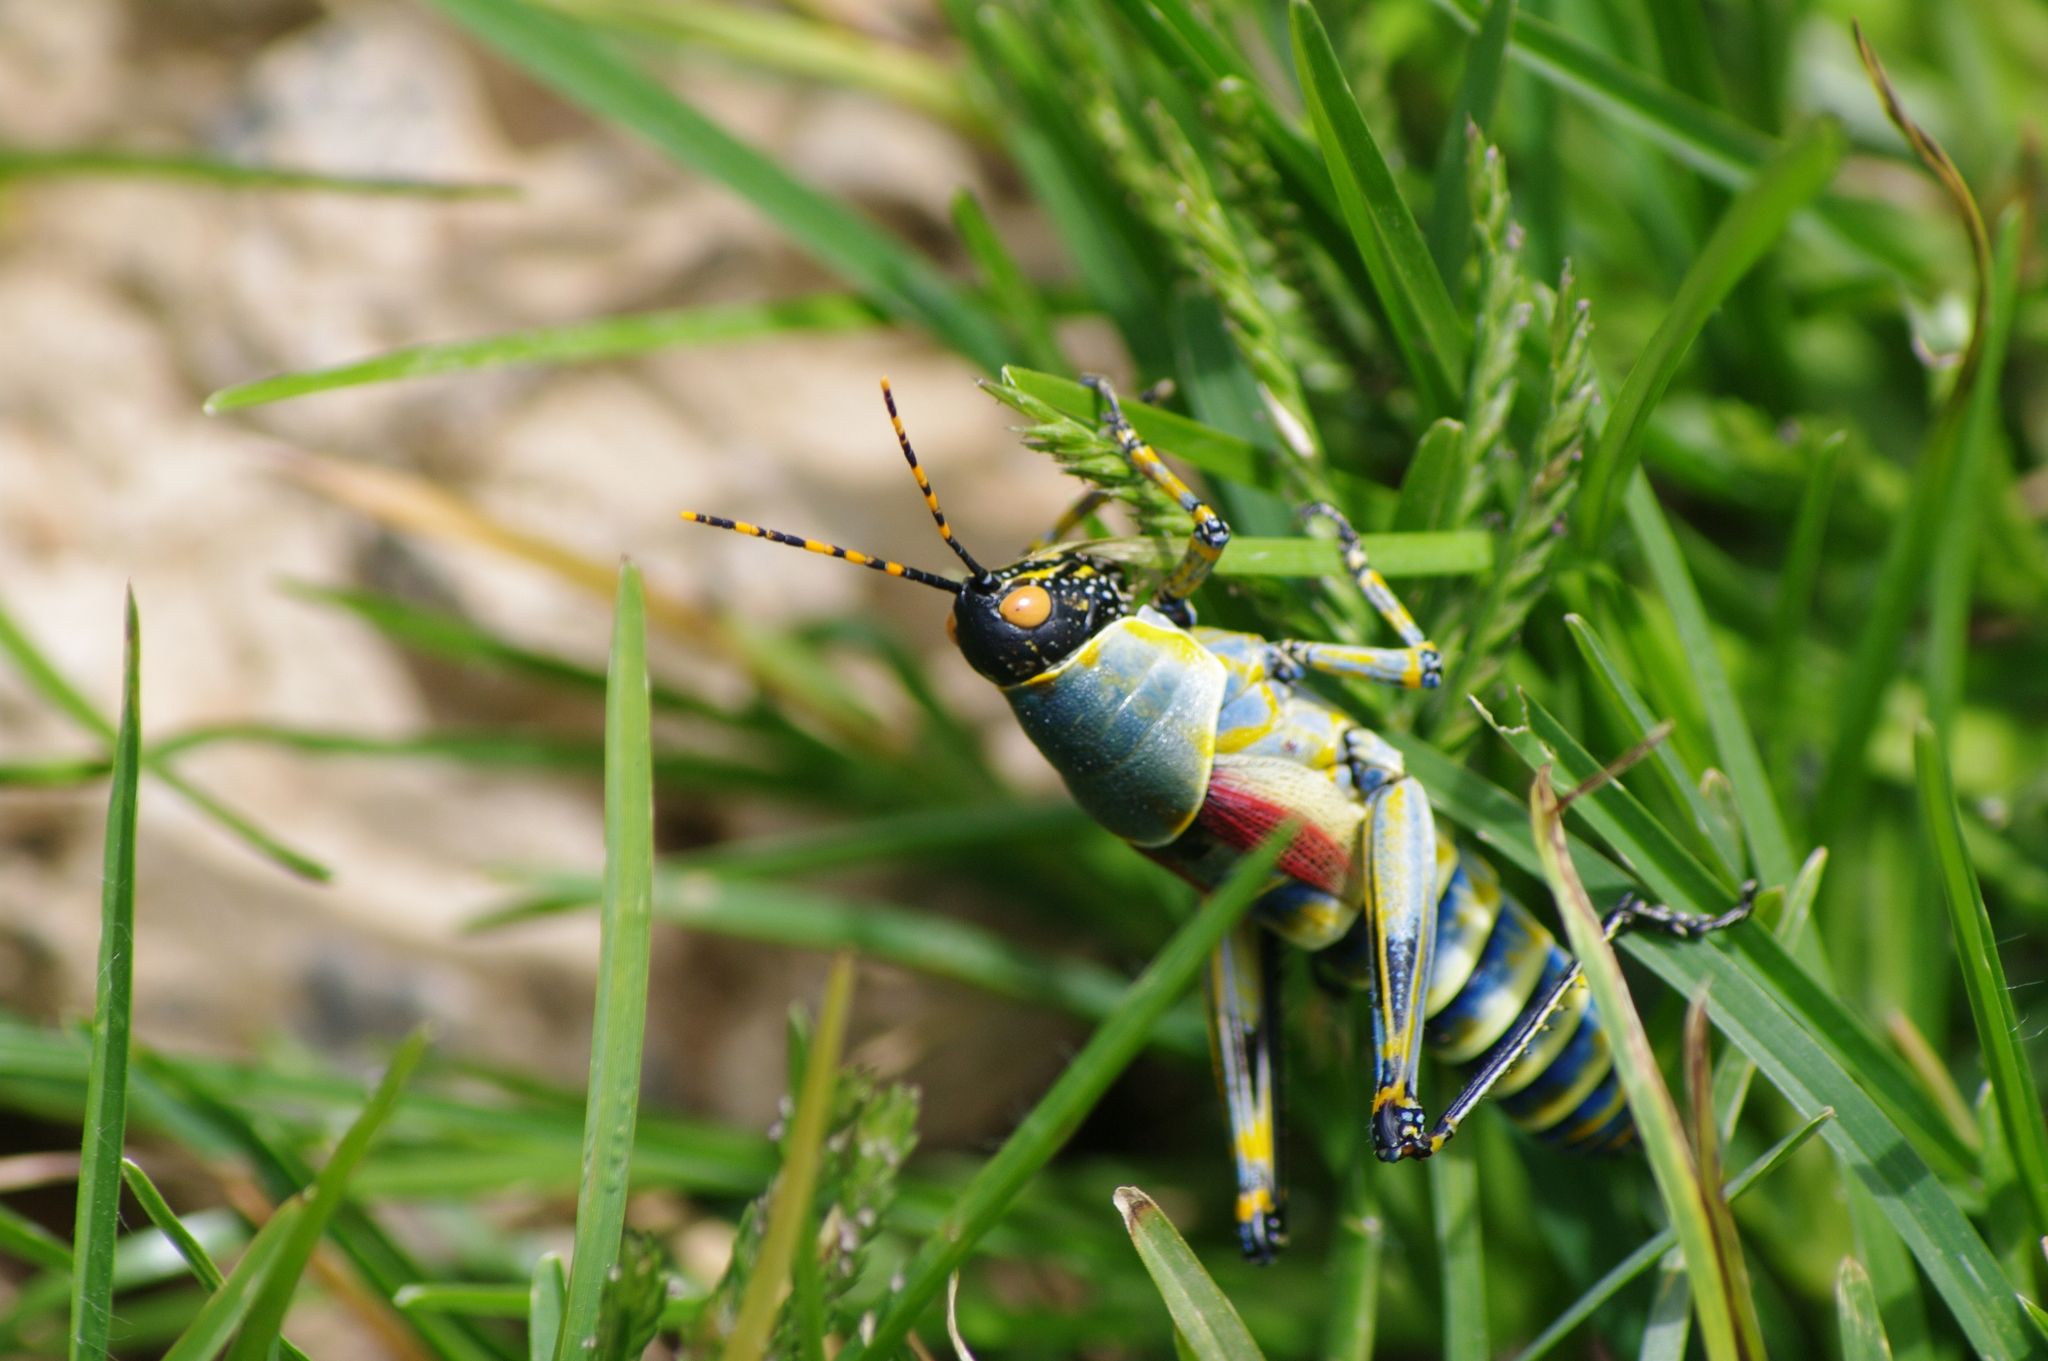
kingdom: Animalia
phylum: Arthropoda
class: Insecta
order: Orthoptera
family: Pyrgomorphidae
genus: Zonocerus
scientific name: Zonocerus elegans
